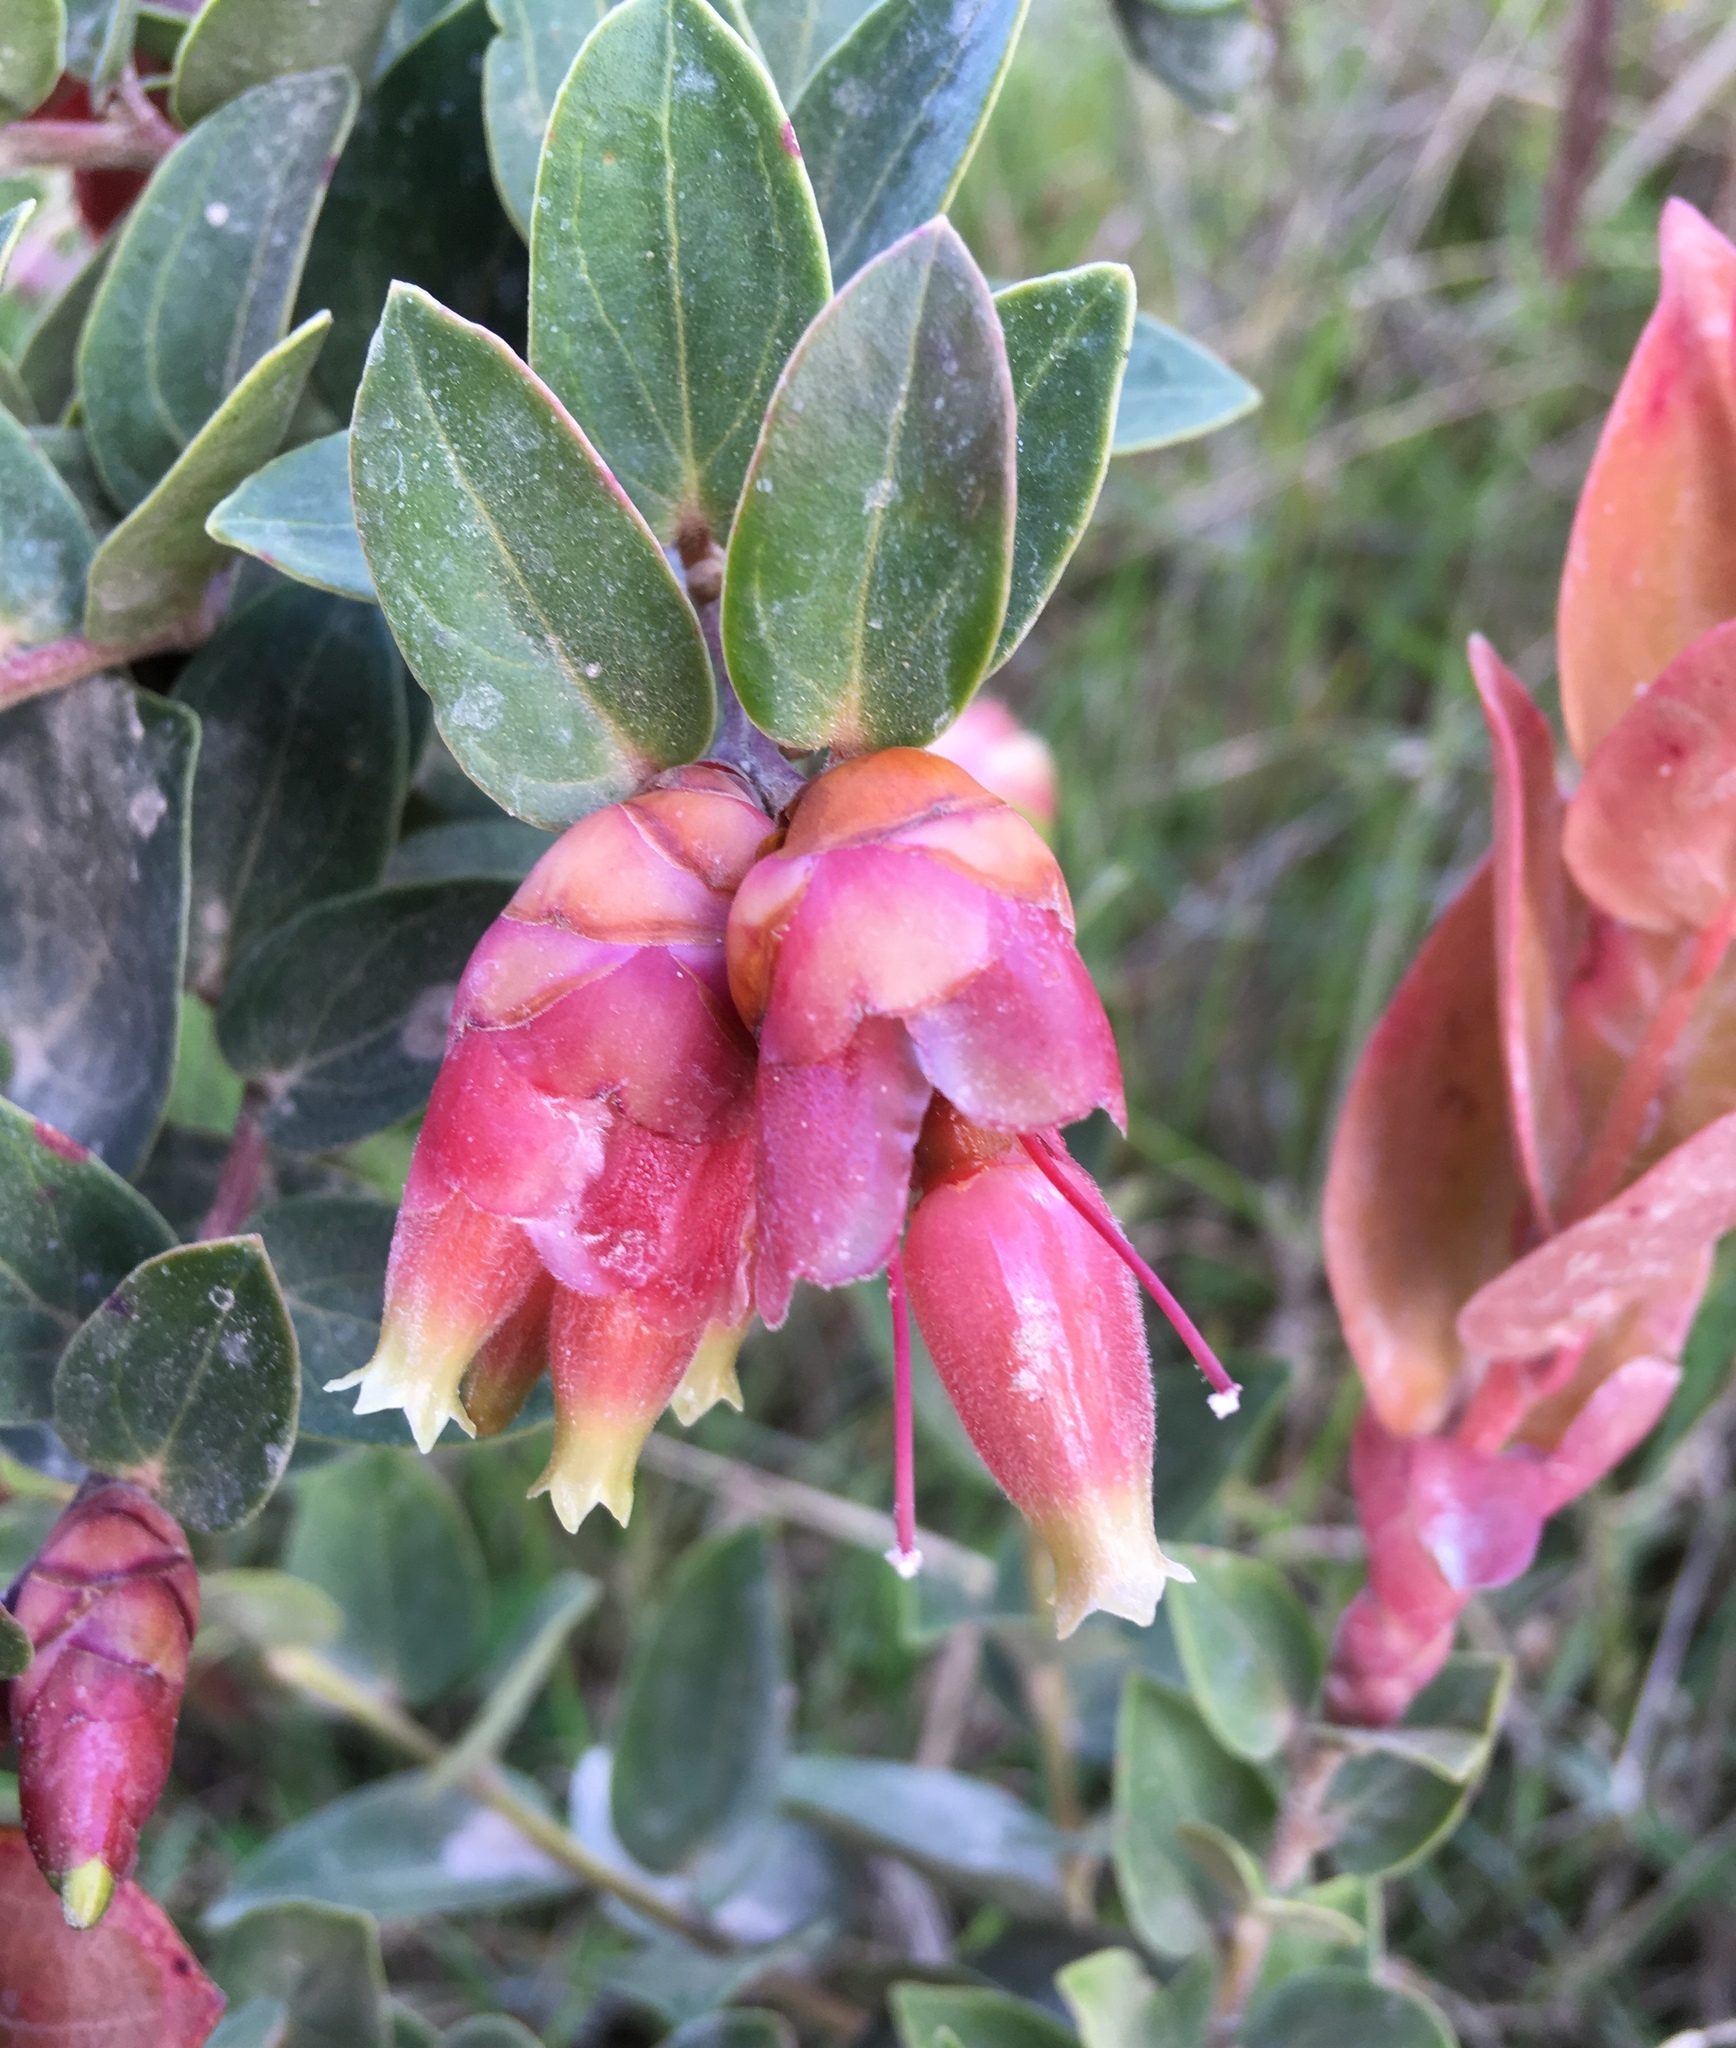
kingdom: Plantae
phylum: Tracheophyta
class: Magnoliopsida
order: Ericales
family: Ericaceae
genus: Cavendishia
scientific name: Cavendishia bracteata
